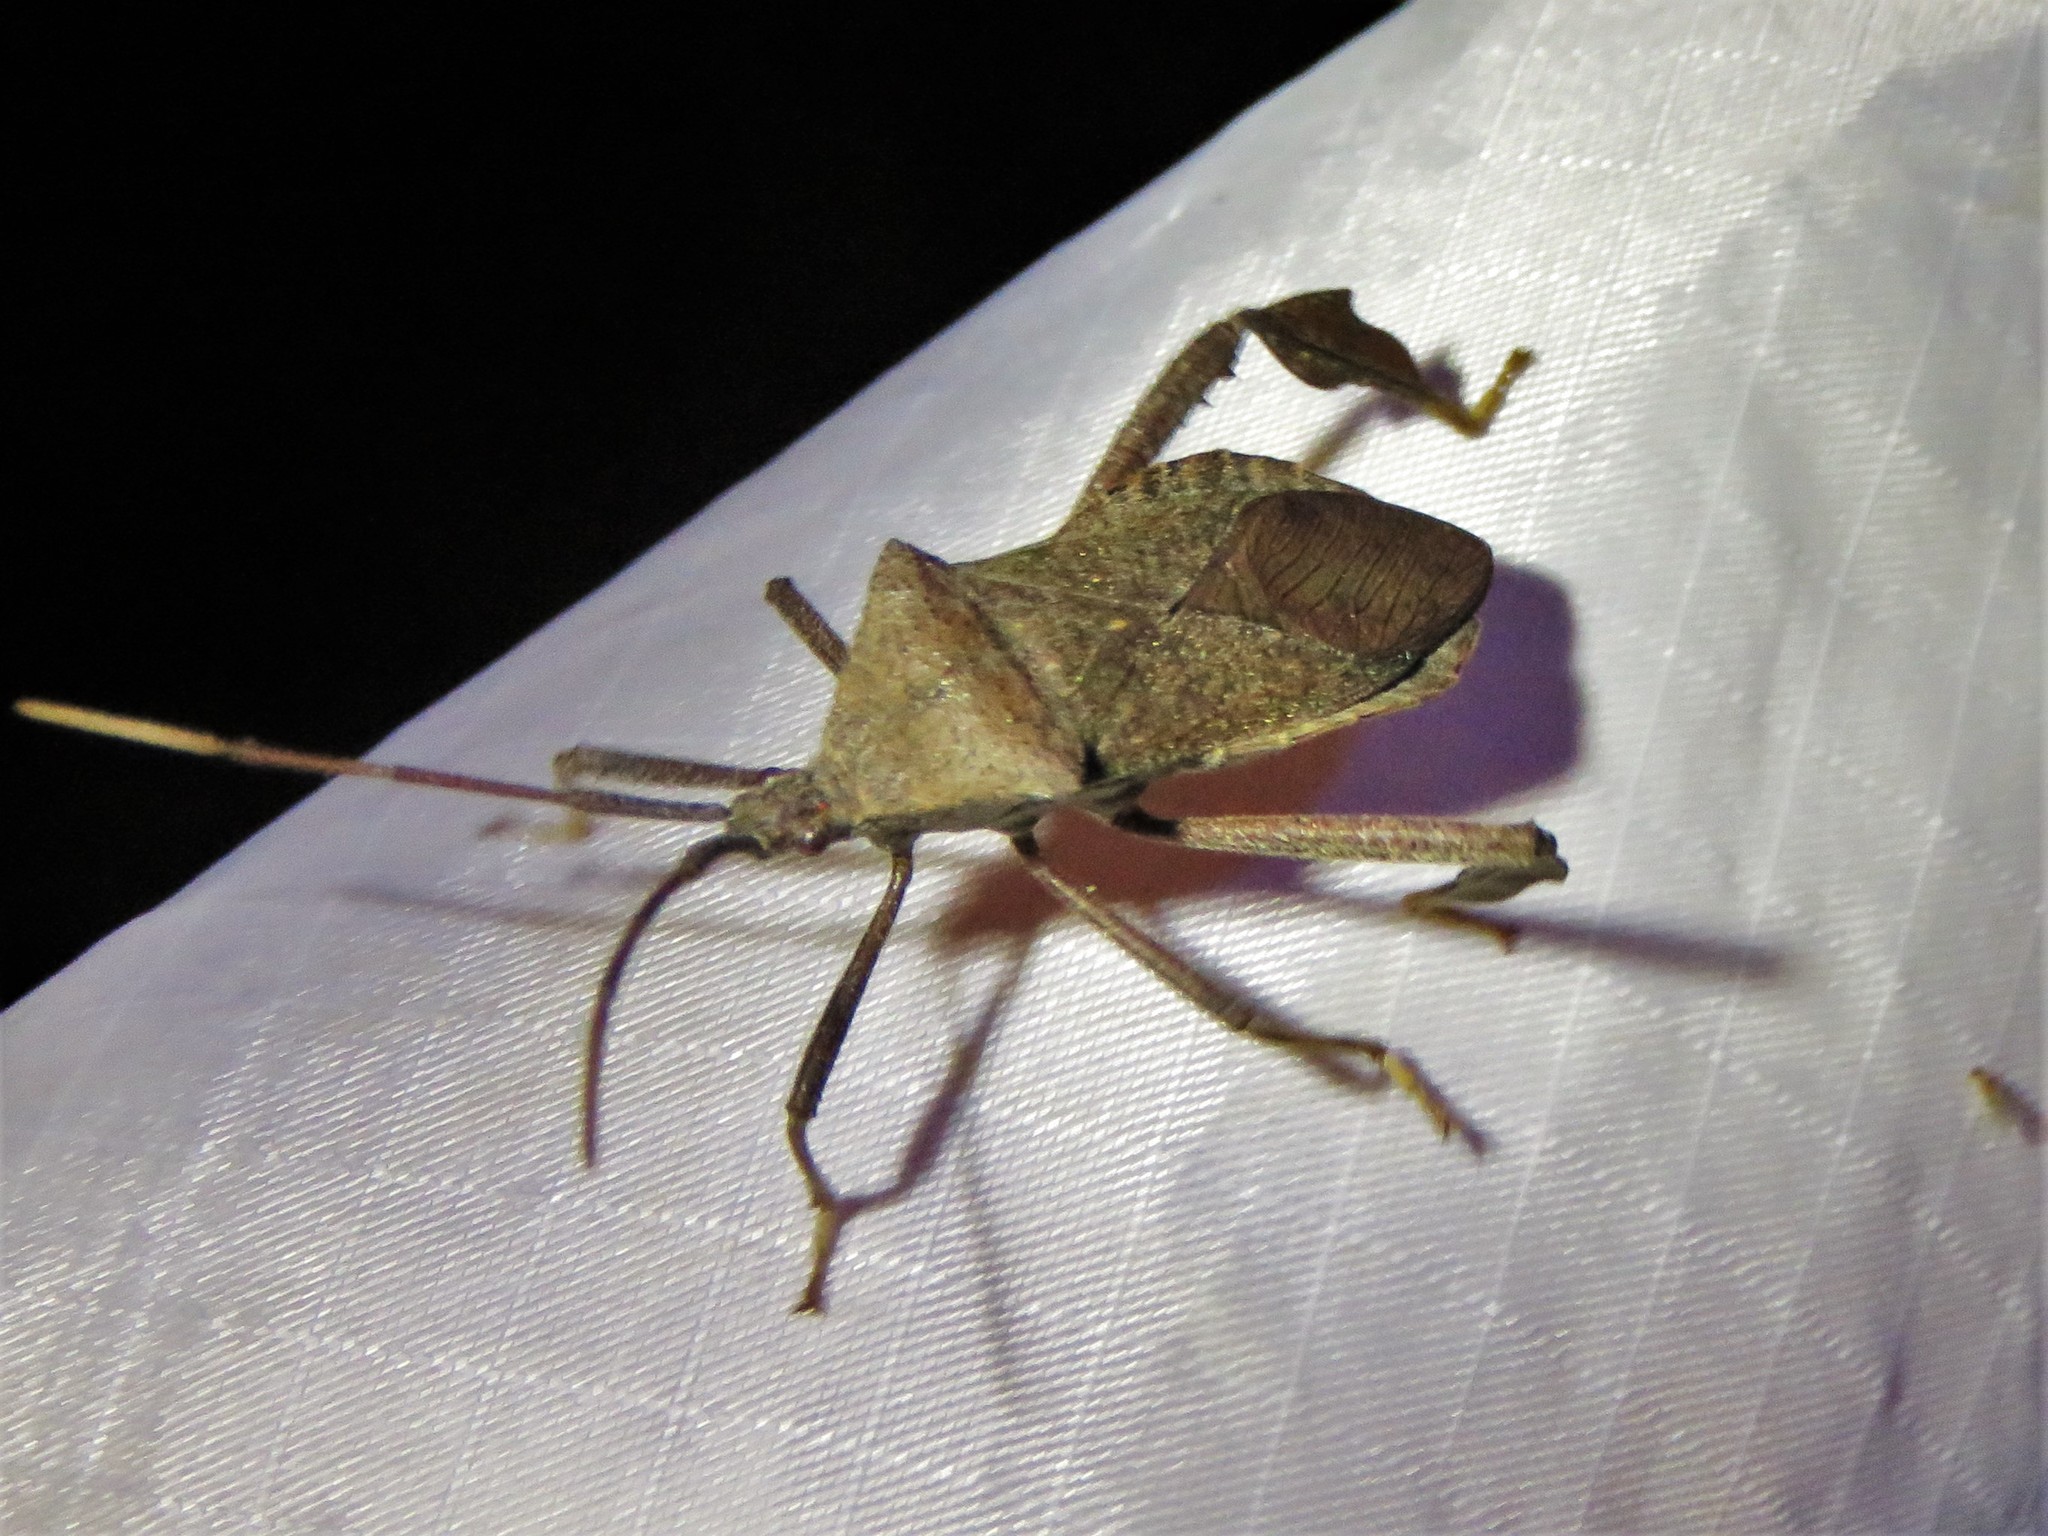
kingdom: Animalia
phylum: Arthropoda
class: Insecta
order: Hemiptera
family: Coreidae
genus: Acanthocephala
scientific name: Acanthocephala terminalis
